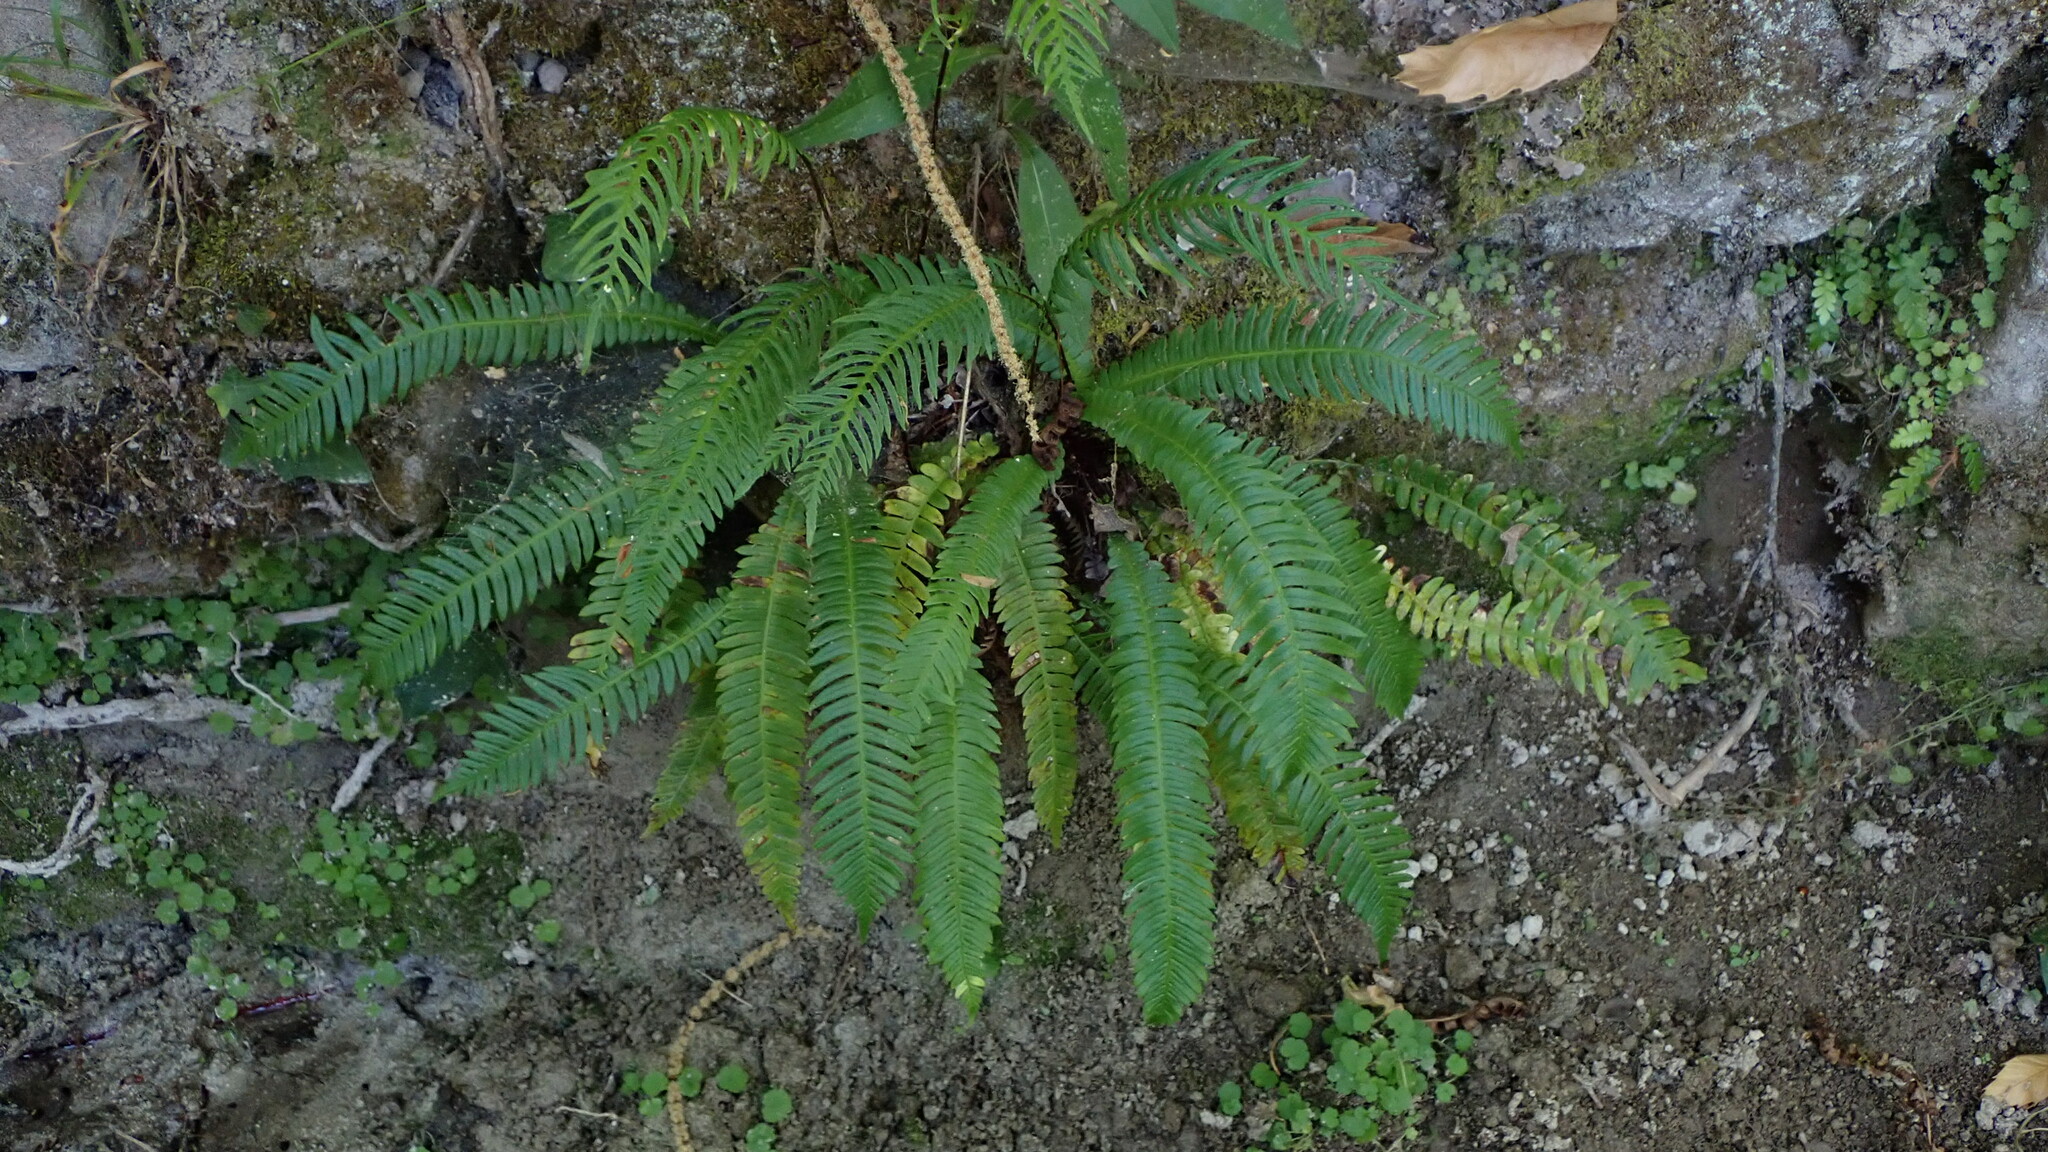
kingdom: Plantae
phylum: Tracheophyta
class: Polypodiopsida
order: Polypodiales
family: Blechnaceae
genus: Struthiopteris
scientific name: Struthiopteris spicant
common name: Deer fern
